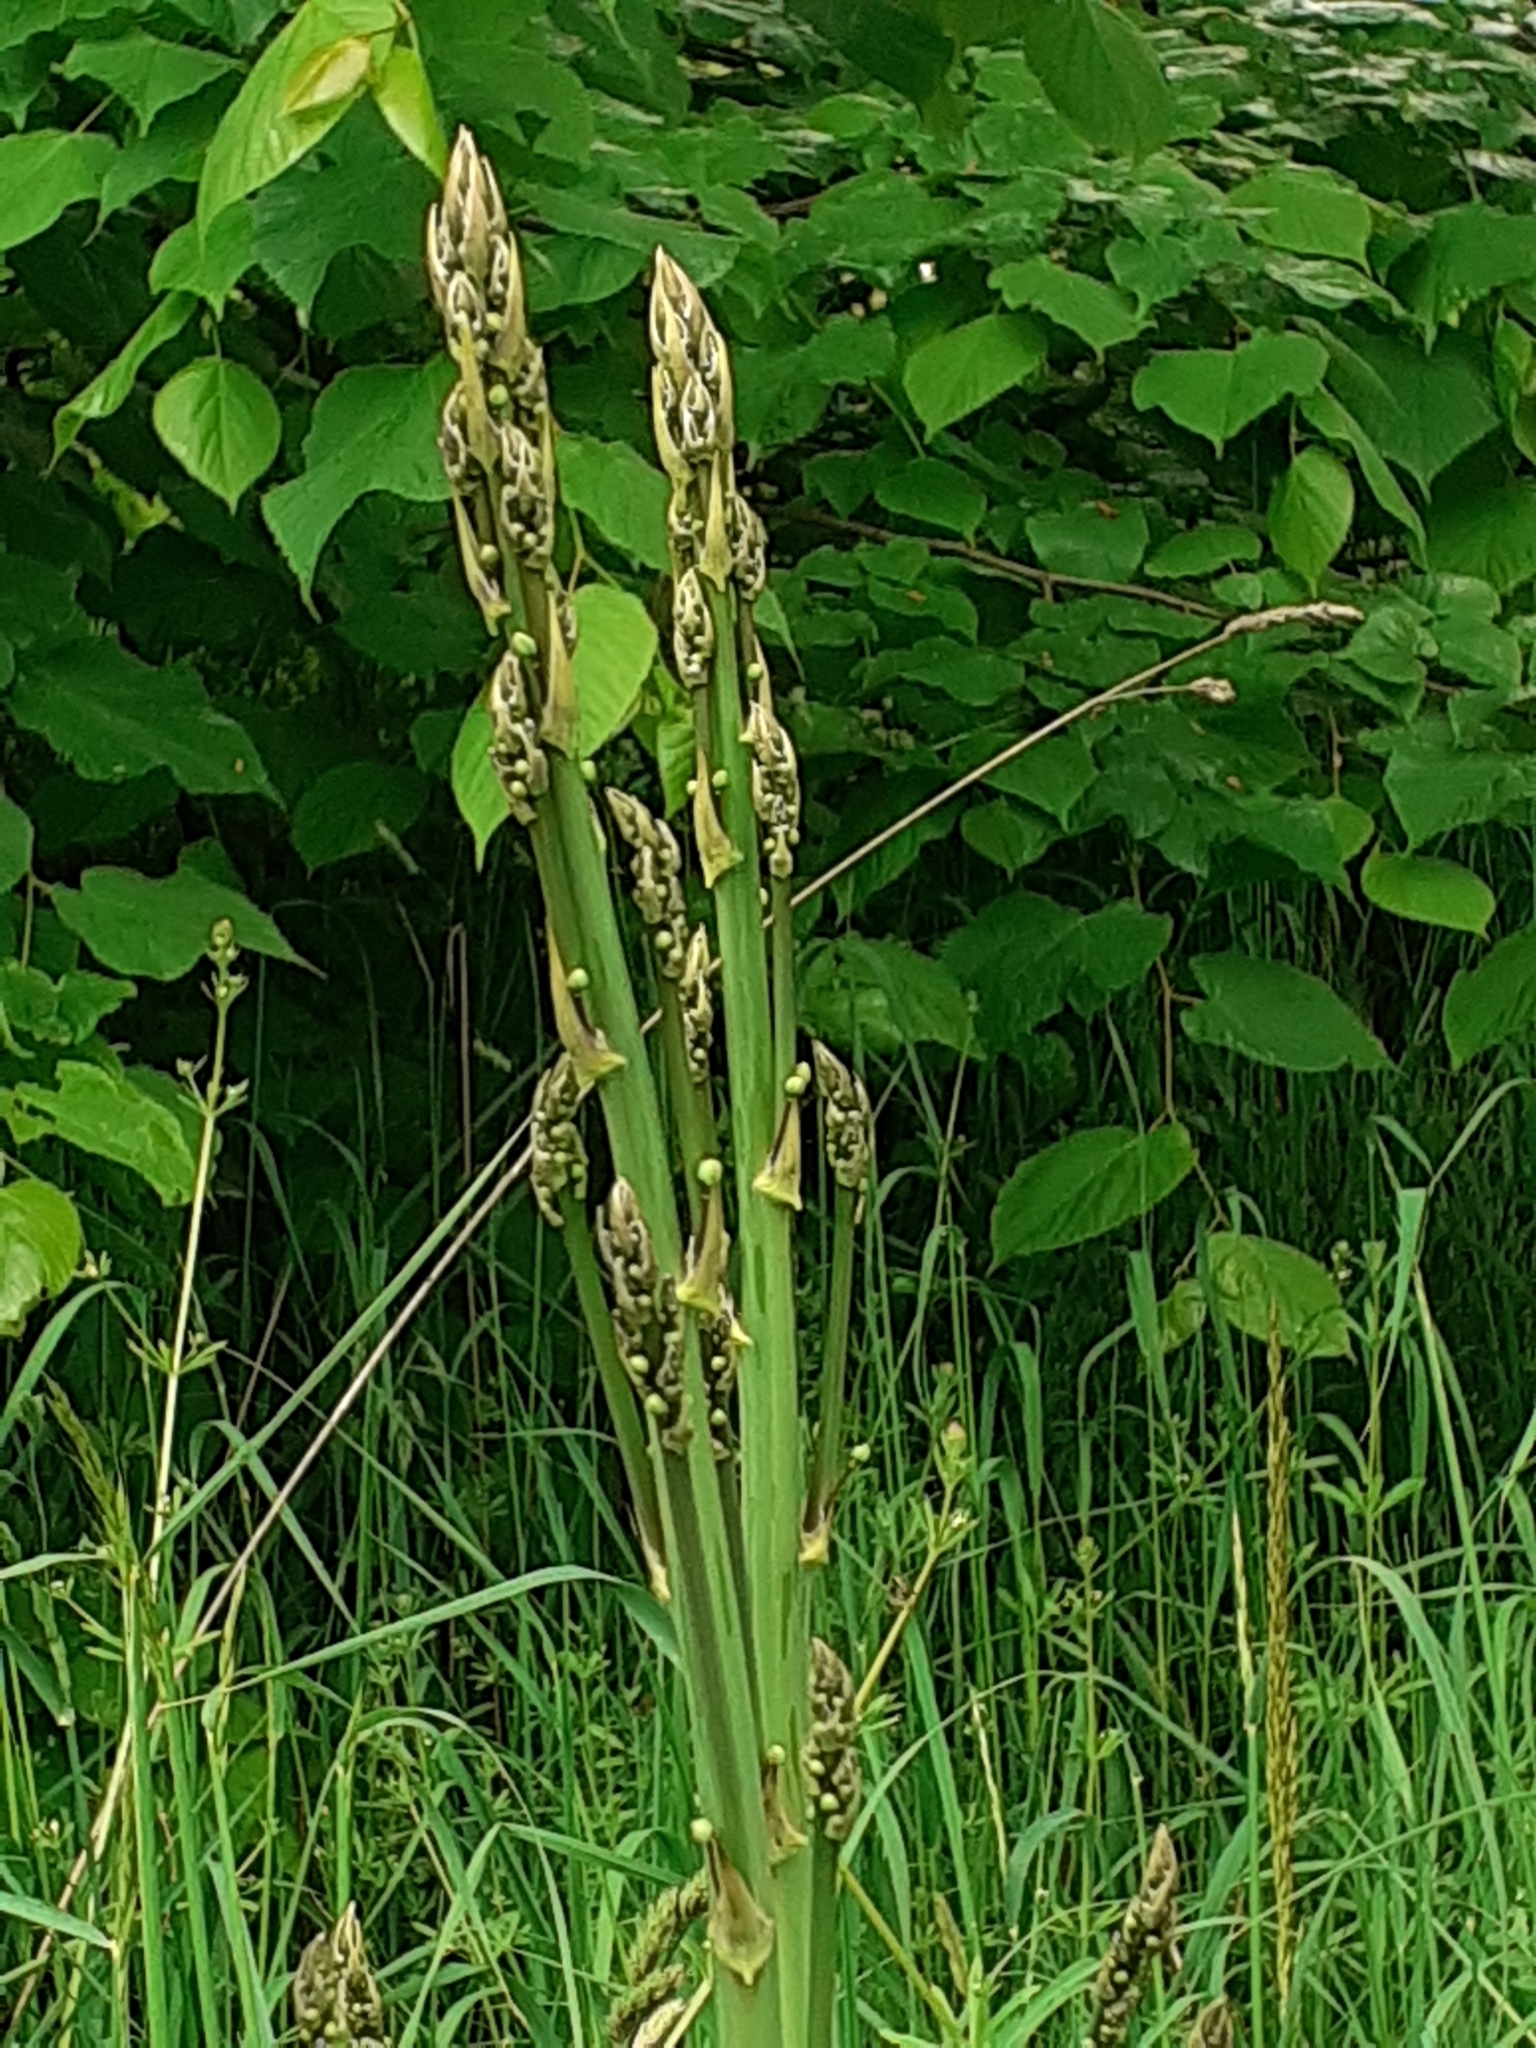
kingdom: Plantae
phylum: Tracheophyta
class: Liliopsida
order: Asparagales
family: Asparagaceae
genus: Asparagus
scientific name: Asparagus officinalis
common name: Garden asparagus
